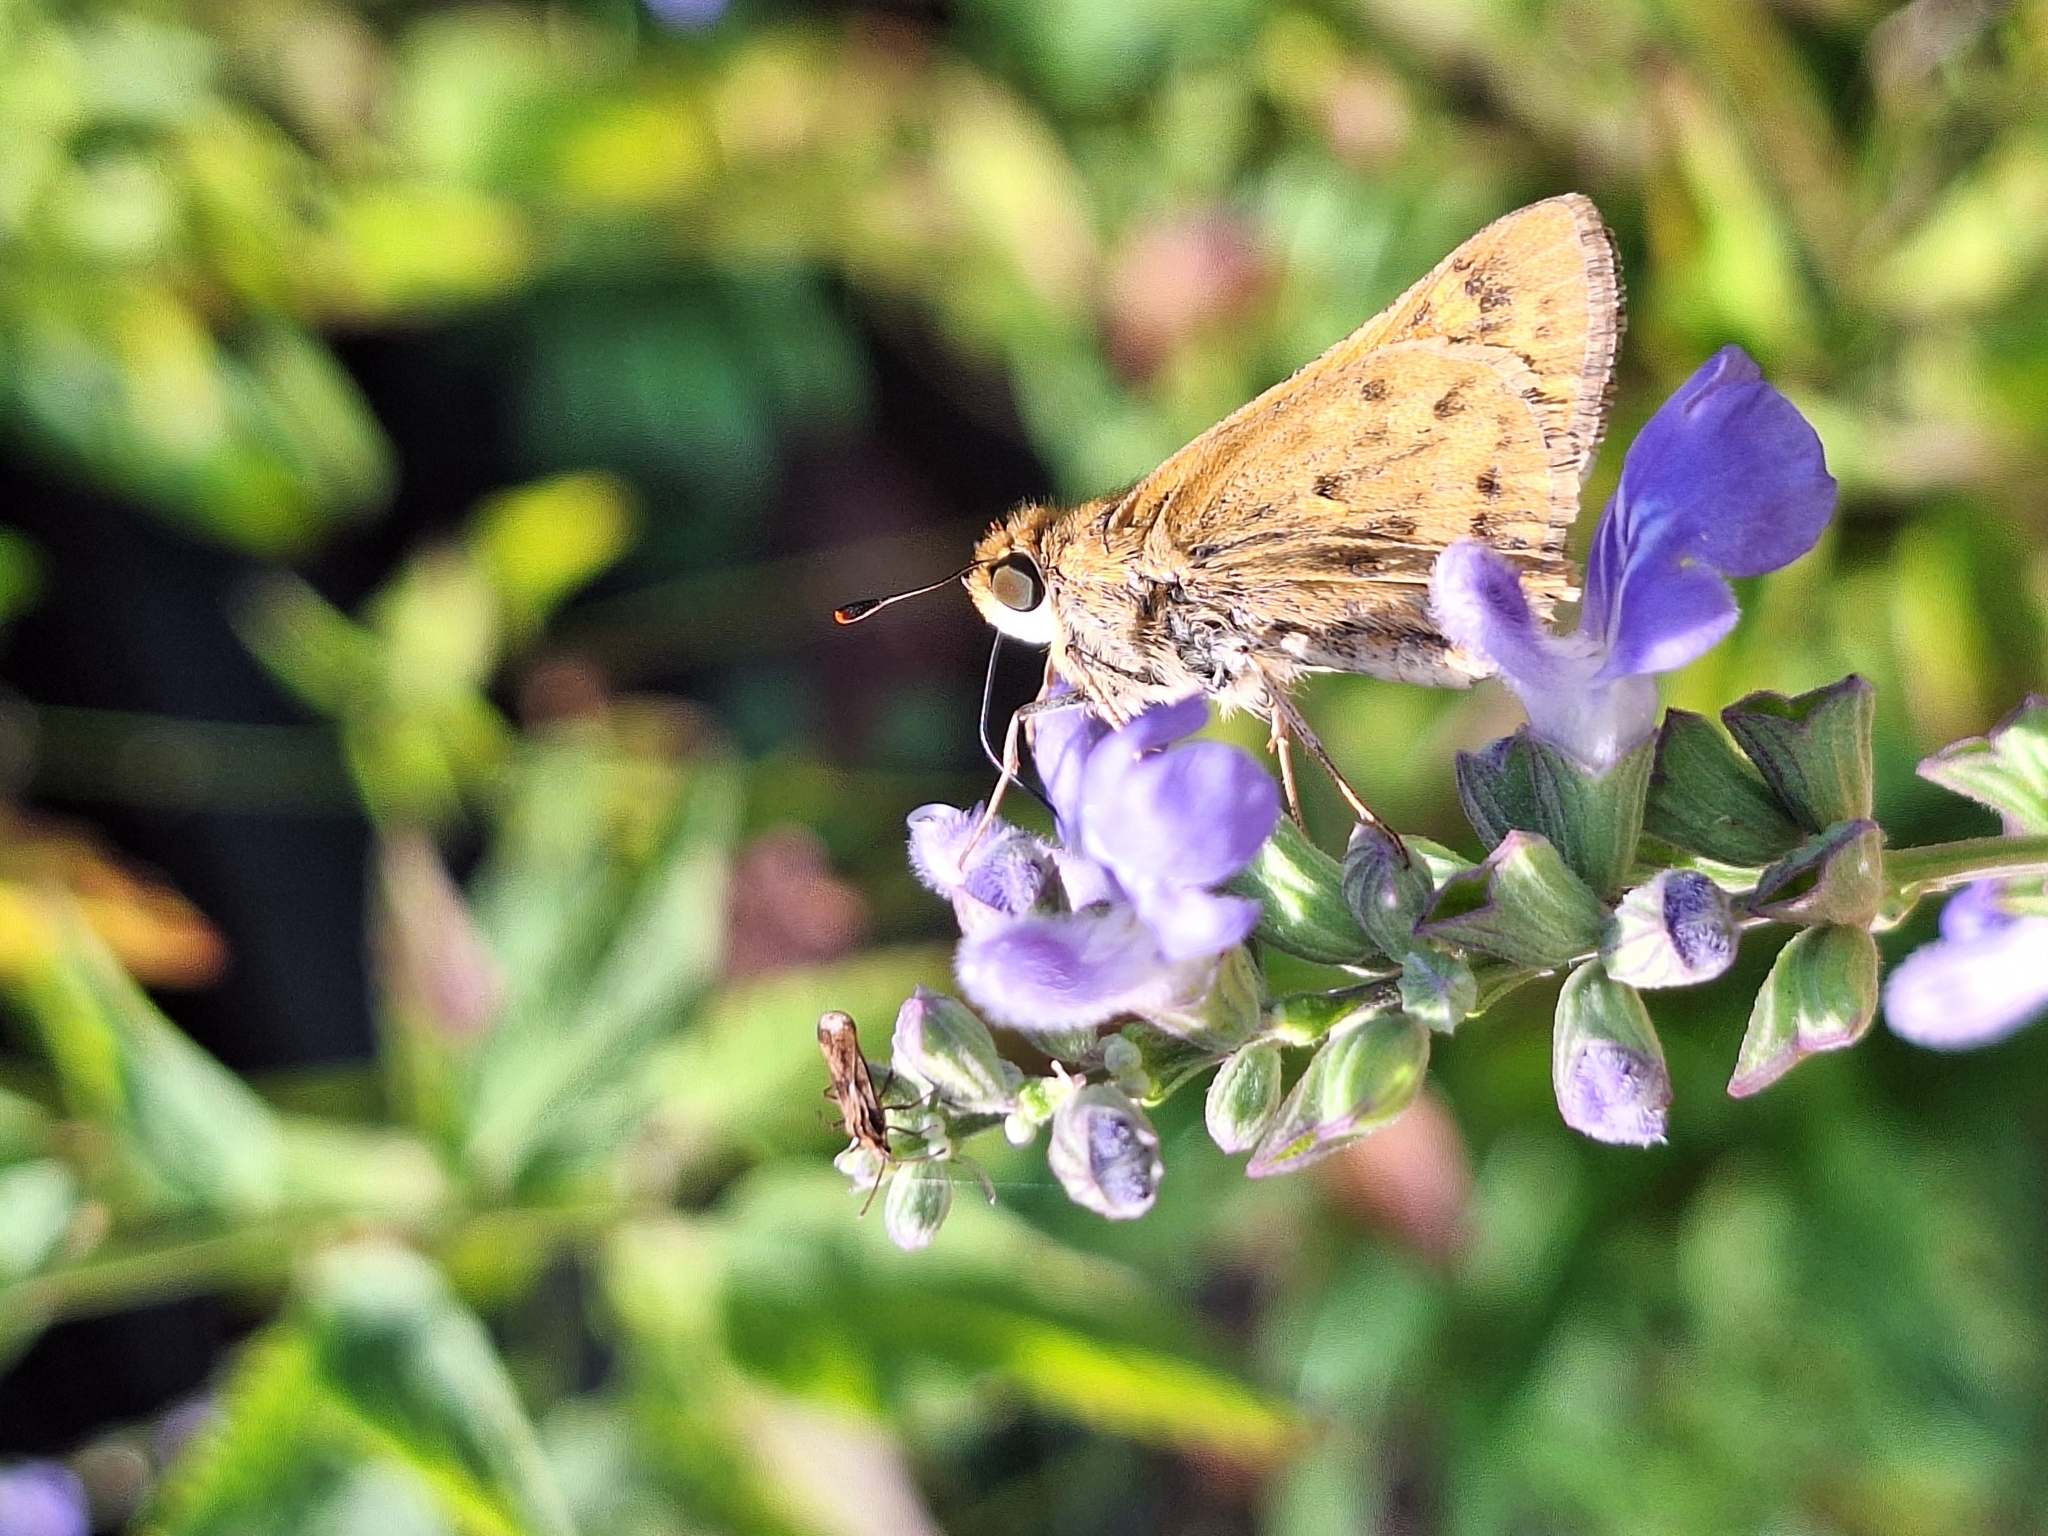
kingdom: Animalia
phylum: Arthropoda
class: Insecta
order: Lepidoptera
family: Hesperiidae
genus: Hylephila
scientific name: Hylephila phyleus
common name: Fiery skipper
